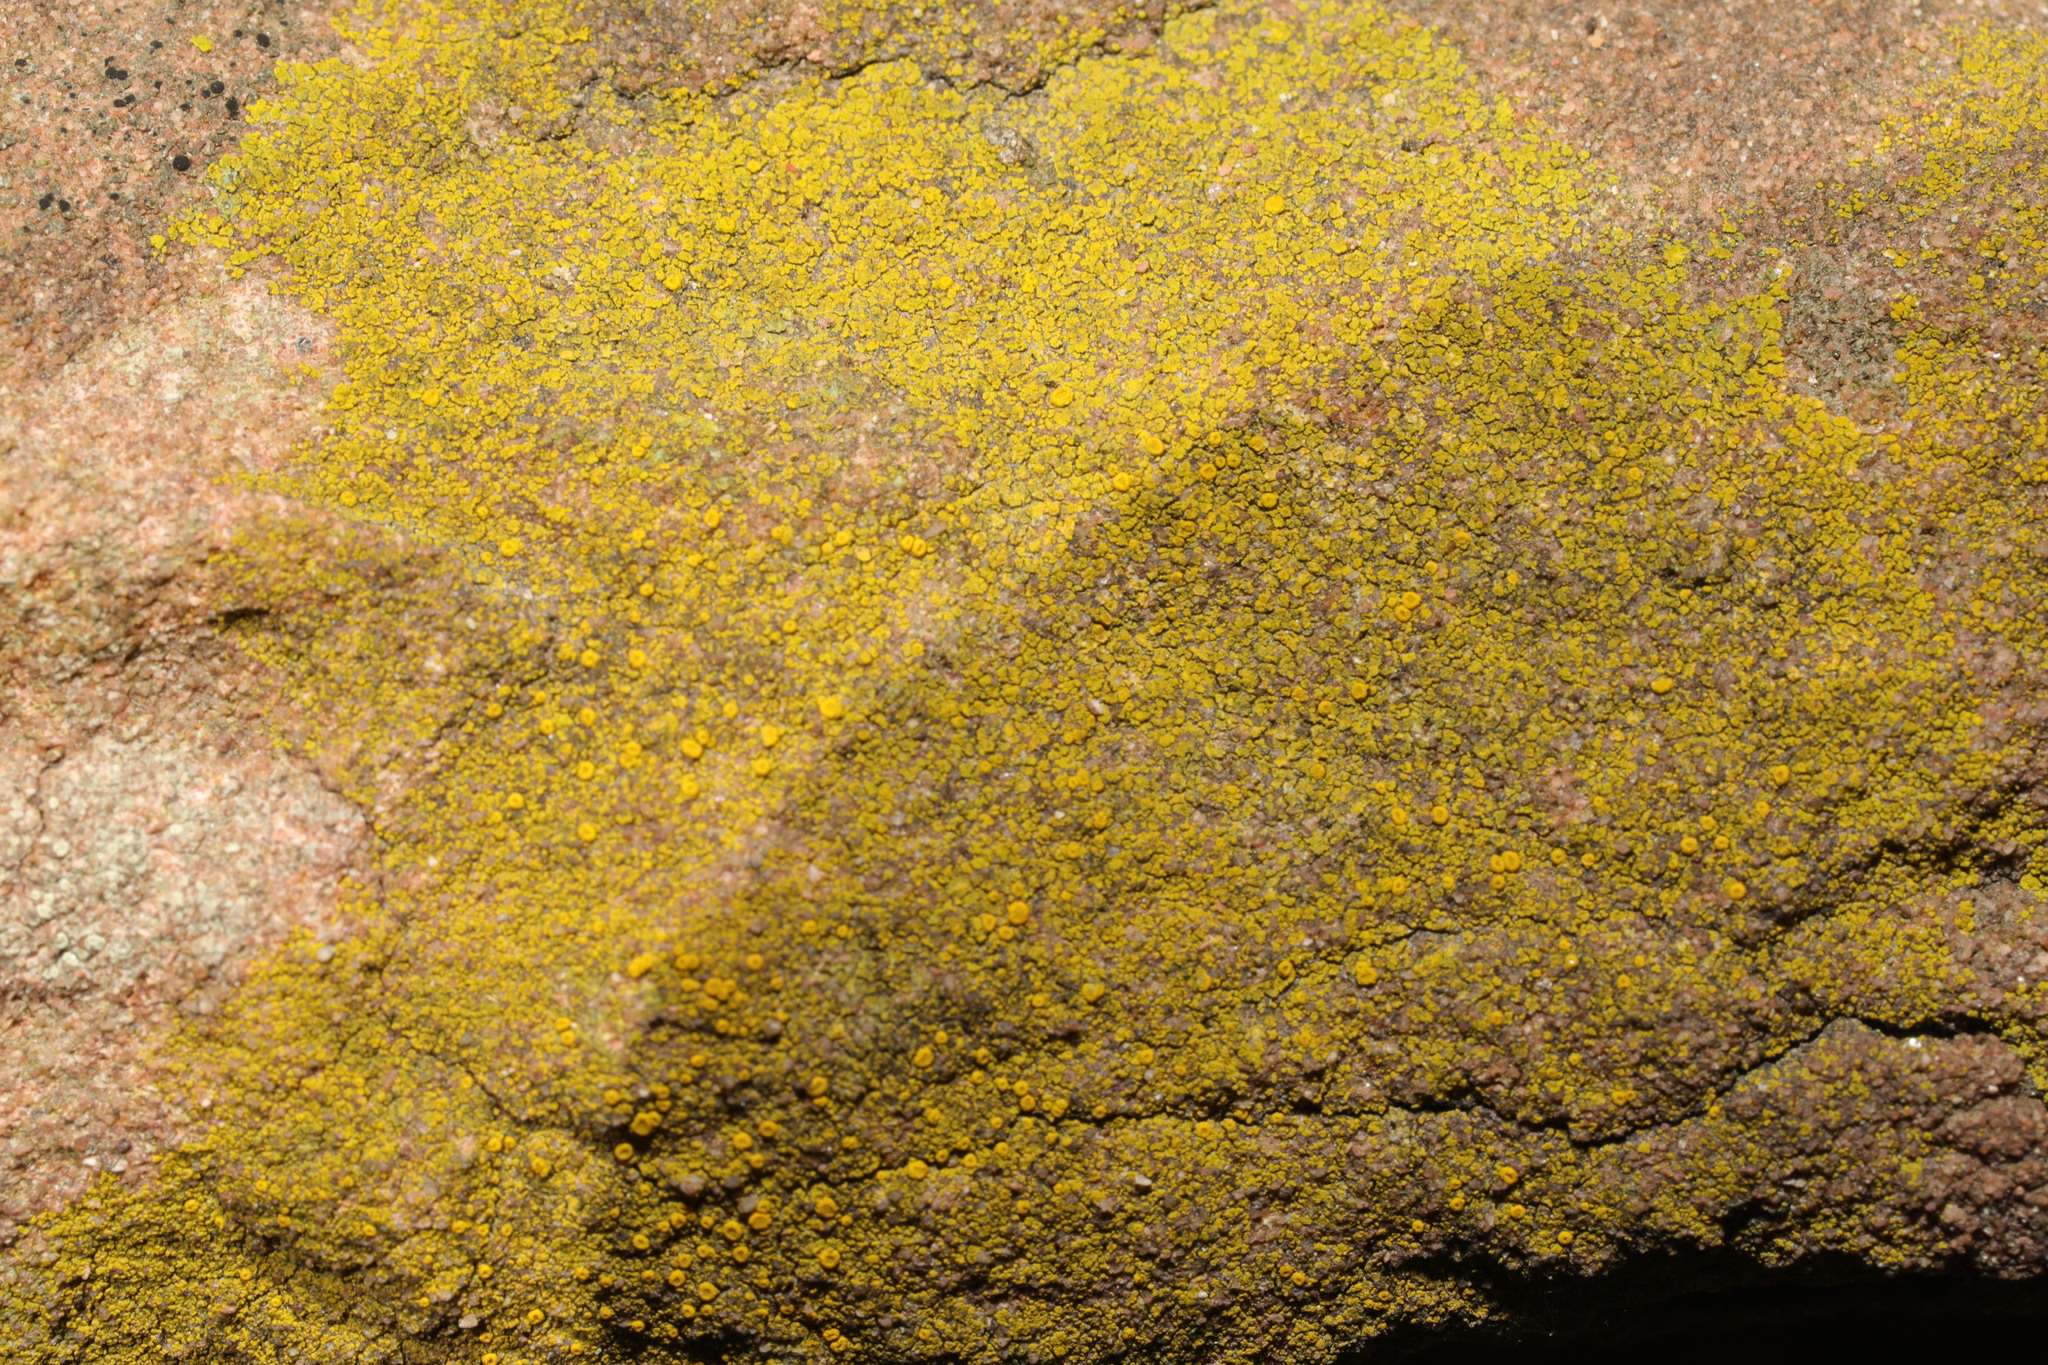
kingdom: Fungi
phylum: Ascomycota
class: Candelariomycetes
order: Candelariales
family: Candelariaceae
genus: Candelariella
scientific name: Candelariella vitellina
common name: Common goldspeck
